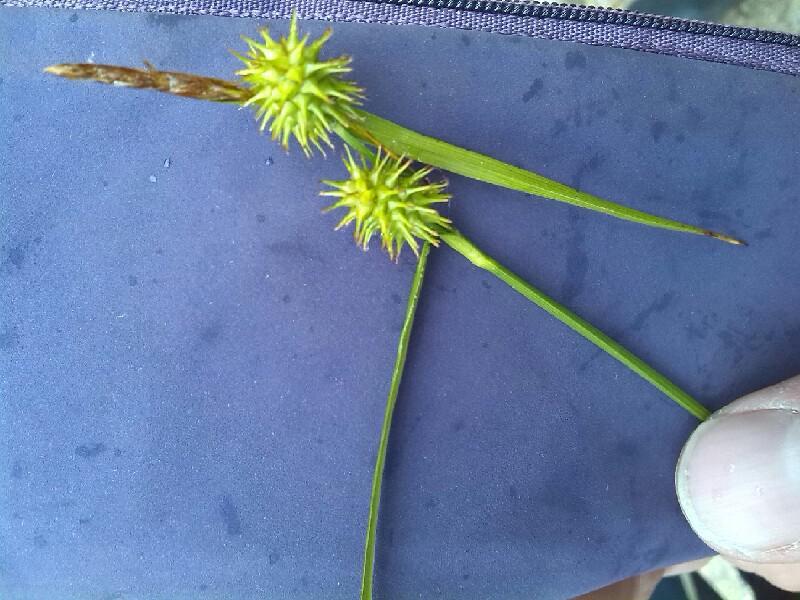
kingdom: Plantae
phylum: Tracheophyta
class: Liliopsida
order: Poales
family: Cyperaceae
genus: Carex
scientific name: Carex lepidocarpa
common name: Long-stalked yellow-sedge
